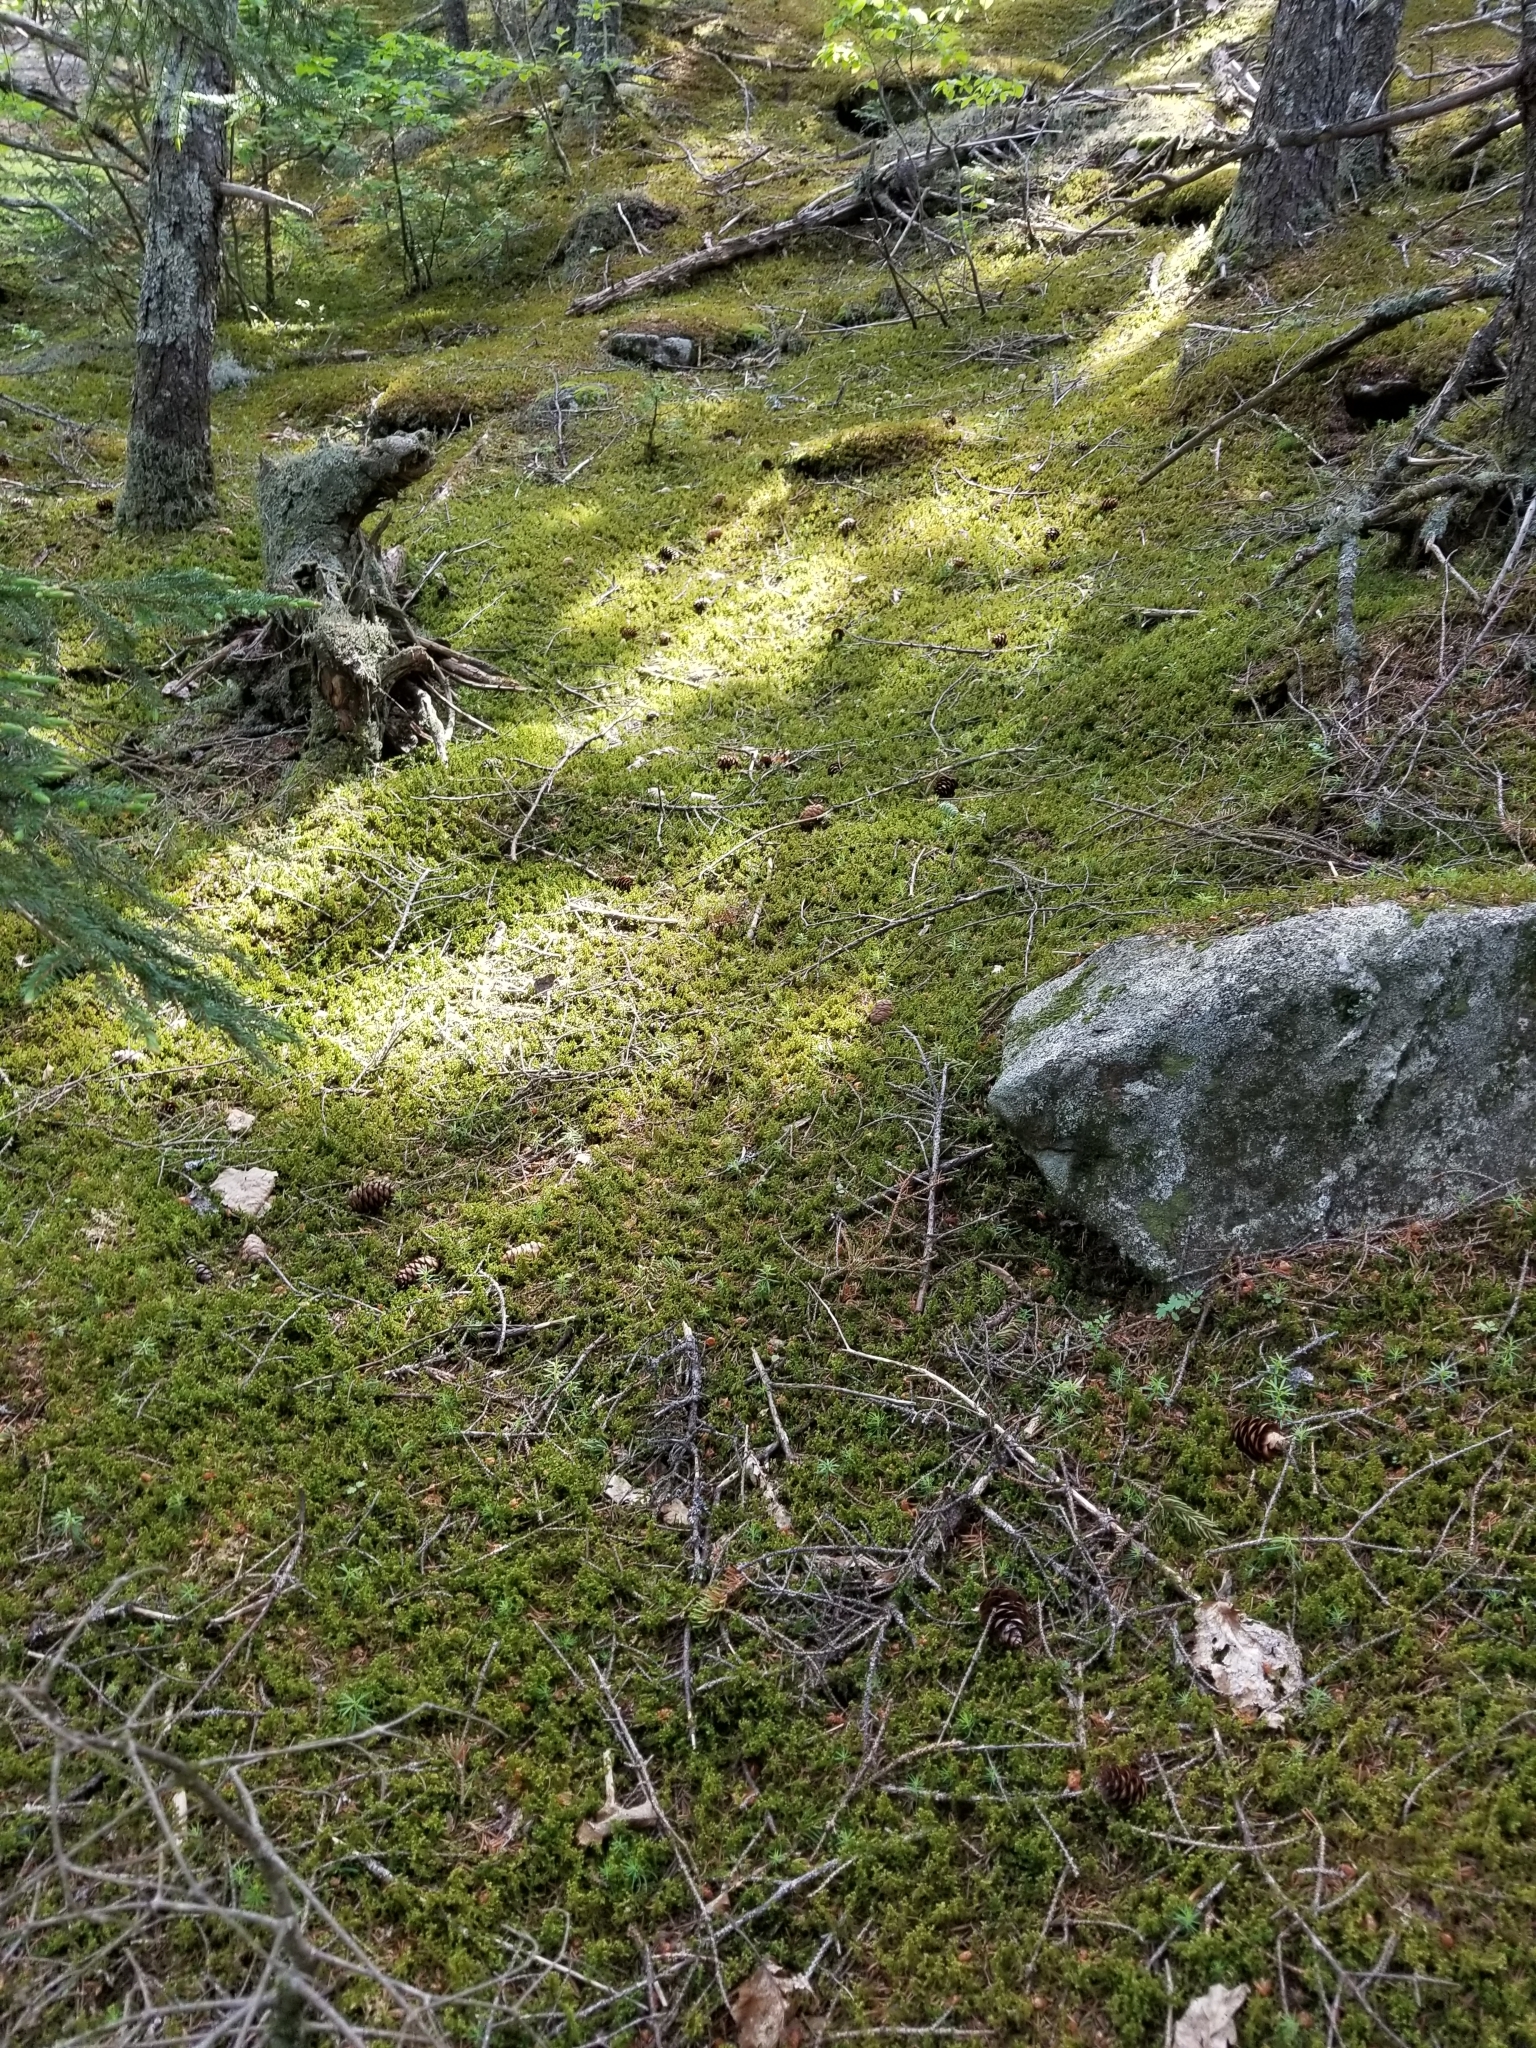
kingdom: Plantae
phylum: Marchantiophyta
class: Jungermanniopsida
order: Ptilidiales
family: Ptilidiaceae
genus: Ptilidium
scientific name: Ptilidium ciliare
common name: Ciliate fringewort
